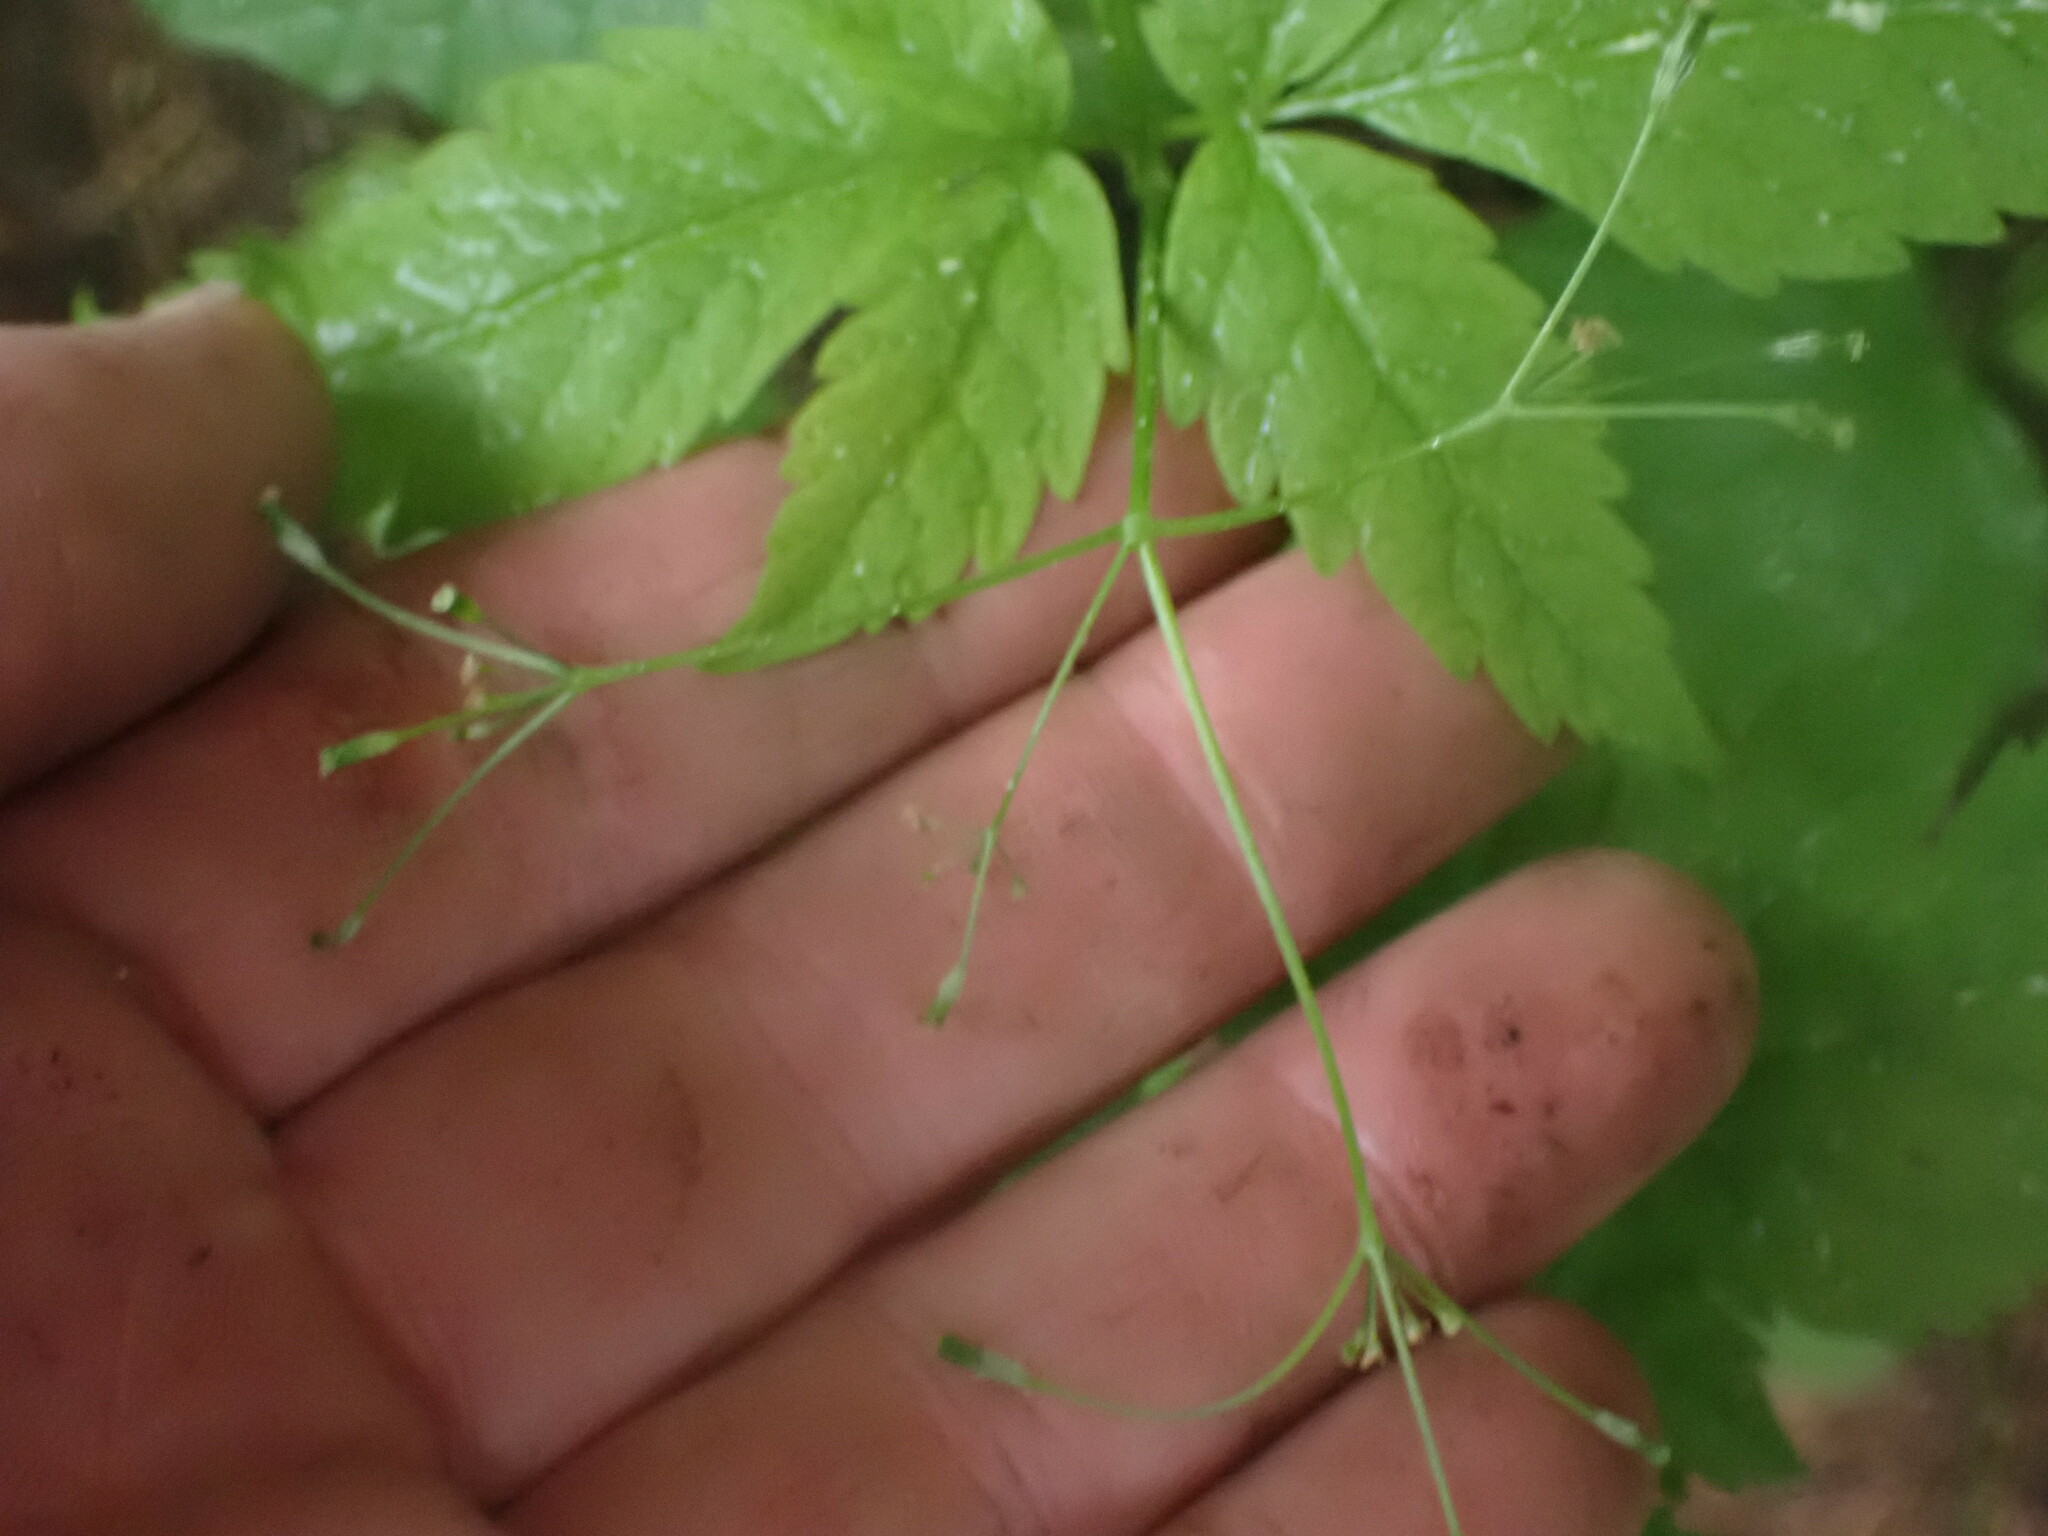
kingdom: Plantae
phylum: Tracheophyta
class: Magnoliopsida
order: Apiales
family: Apiaceae
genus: Osmorhiza
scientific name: Osmorhiza berteroi
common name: Mountain sweet cicely
